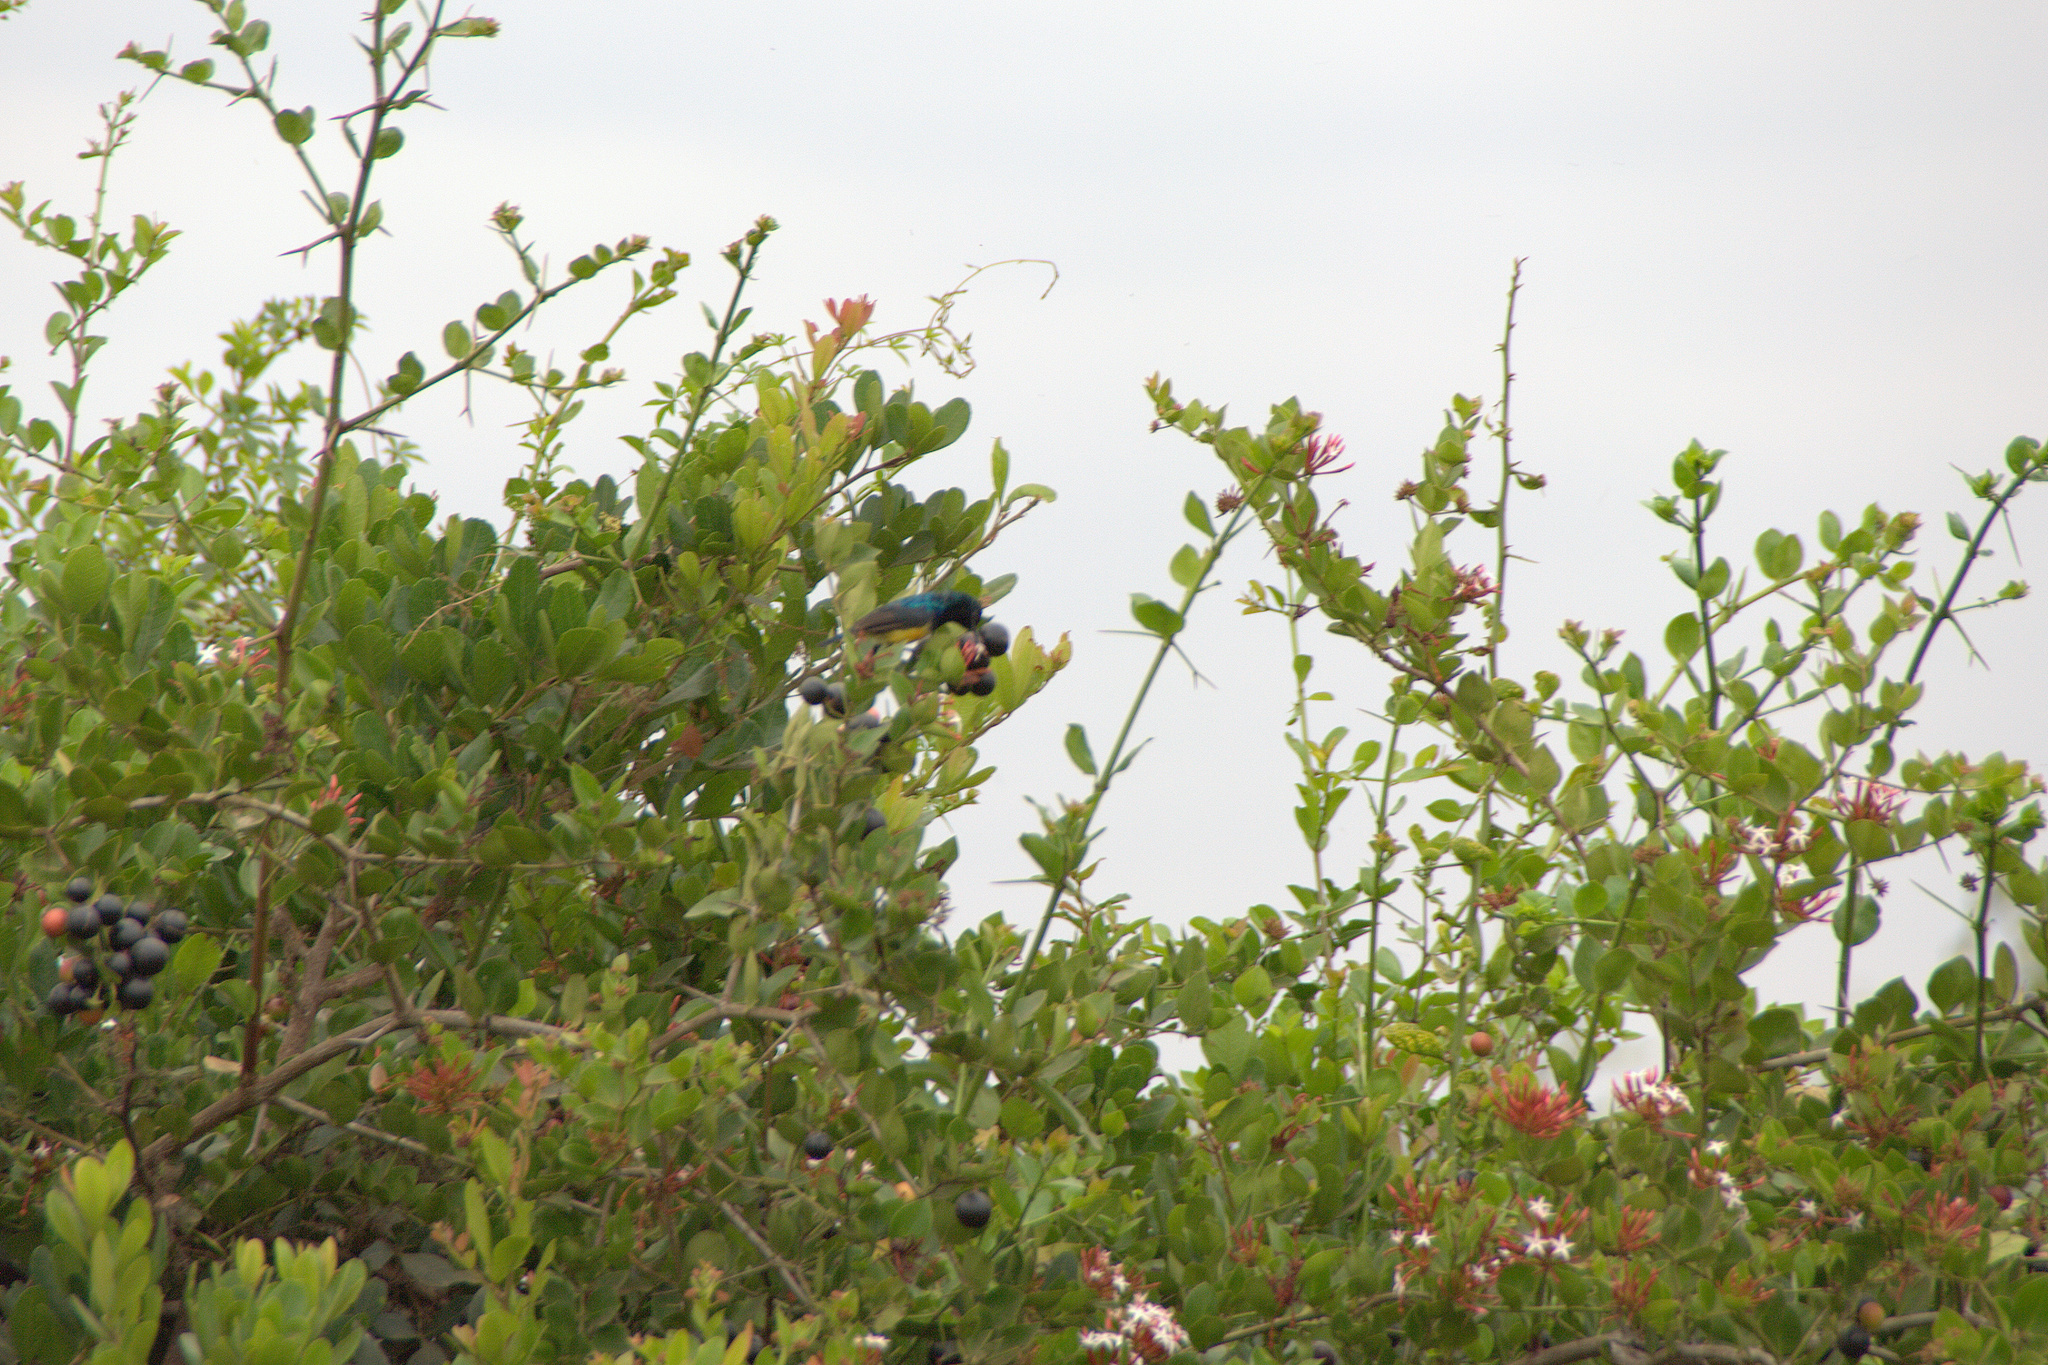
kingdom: Animalia
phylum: Chordata
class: Aves
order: Passeriformes
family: Nectariniidae
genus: Hedydipna
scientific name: Hedydipna collaris
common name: Collared sunbird
